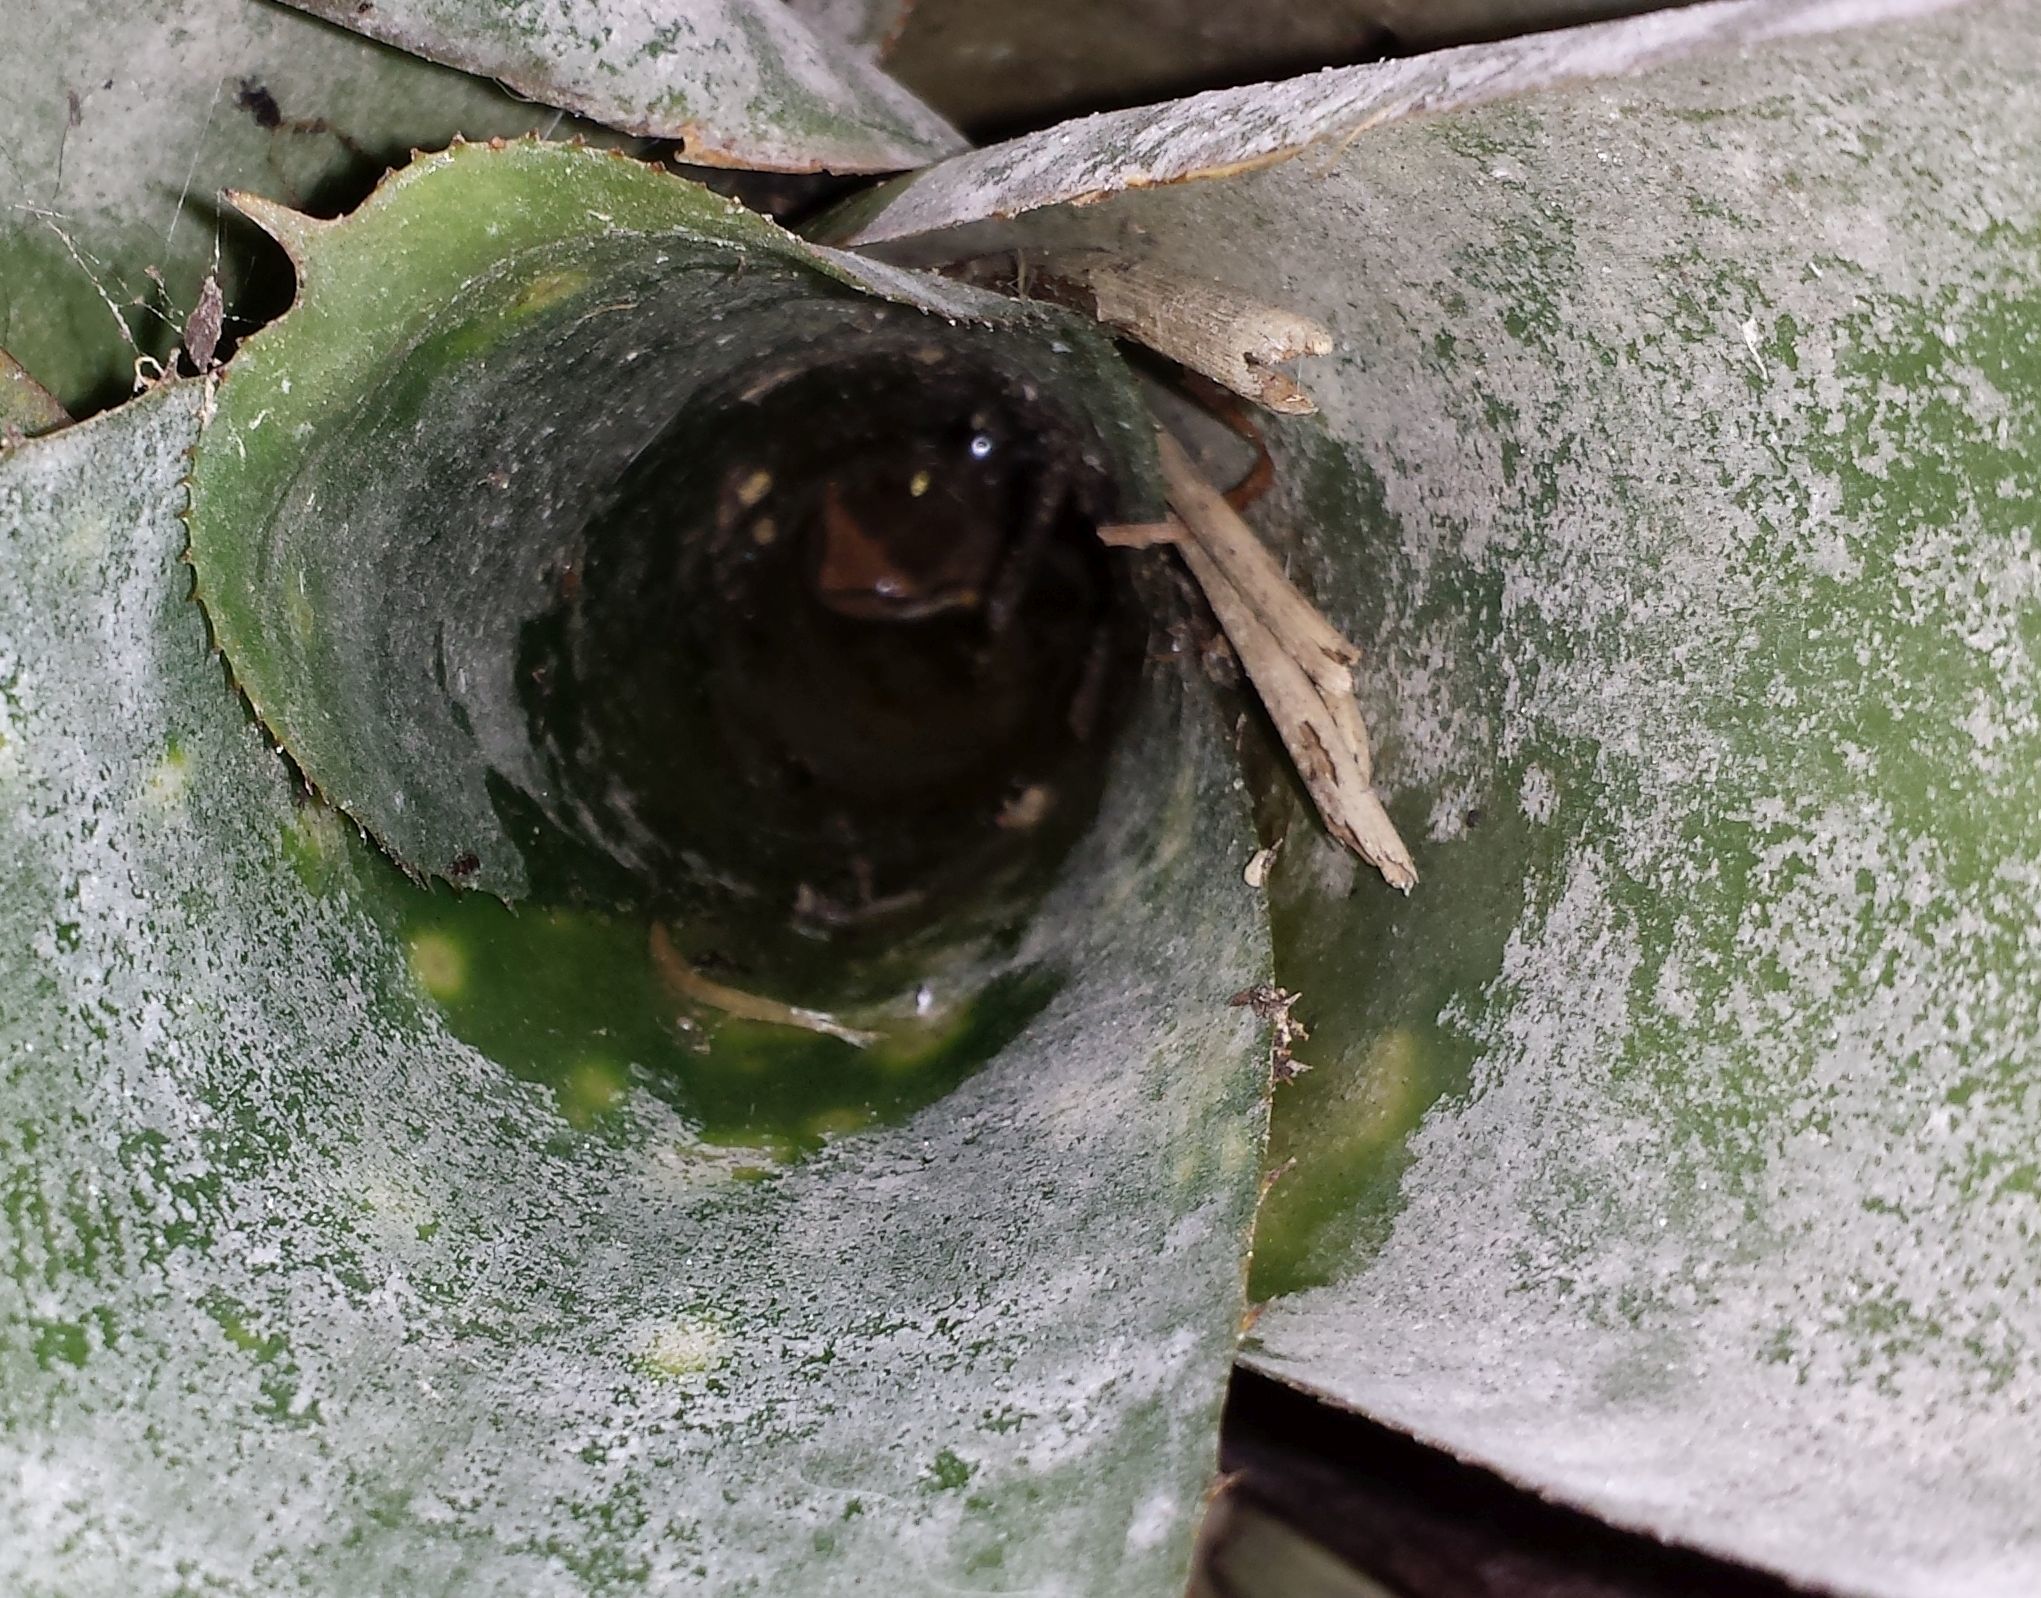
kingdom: Animalia
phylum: Chordata
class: Amphibia
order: Anura
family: Pelodryadidae
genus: Litoria
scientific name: Litoria ewingii
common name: Southern brown tree frog
